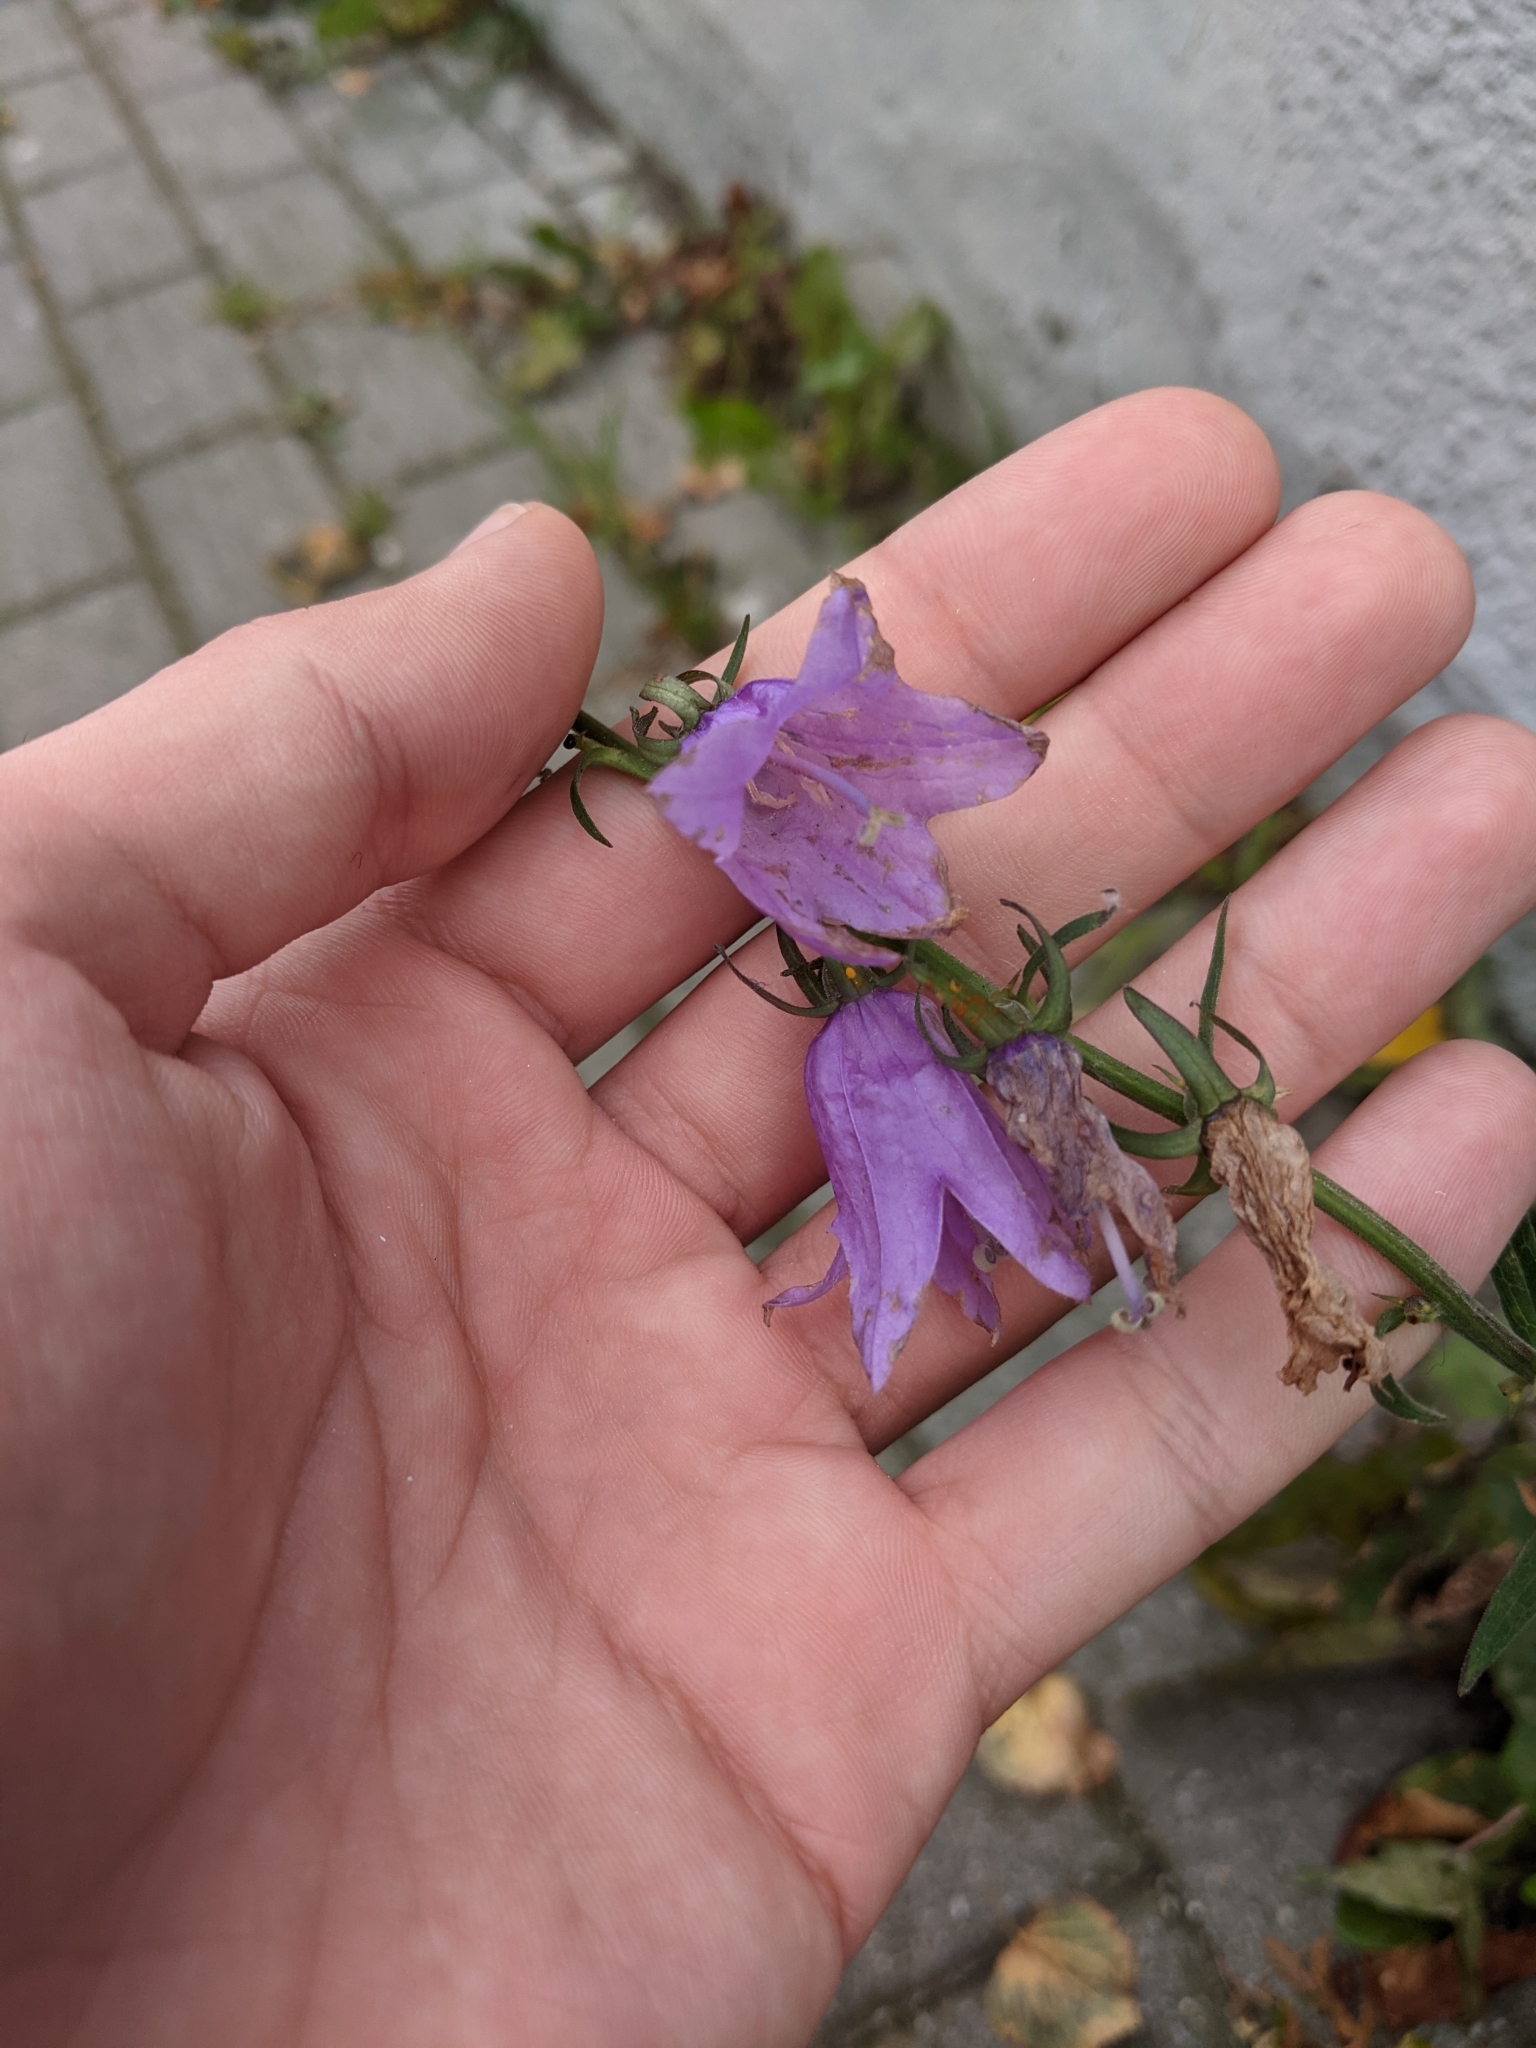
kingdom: Plantae
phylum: Tracheophyta
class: Magnoliopsida
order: Asterales
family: Campanulaceae
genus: Campanula
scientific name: Campanula persicifolia
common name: Peach-leaved bellflower
